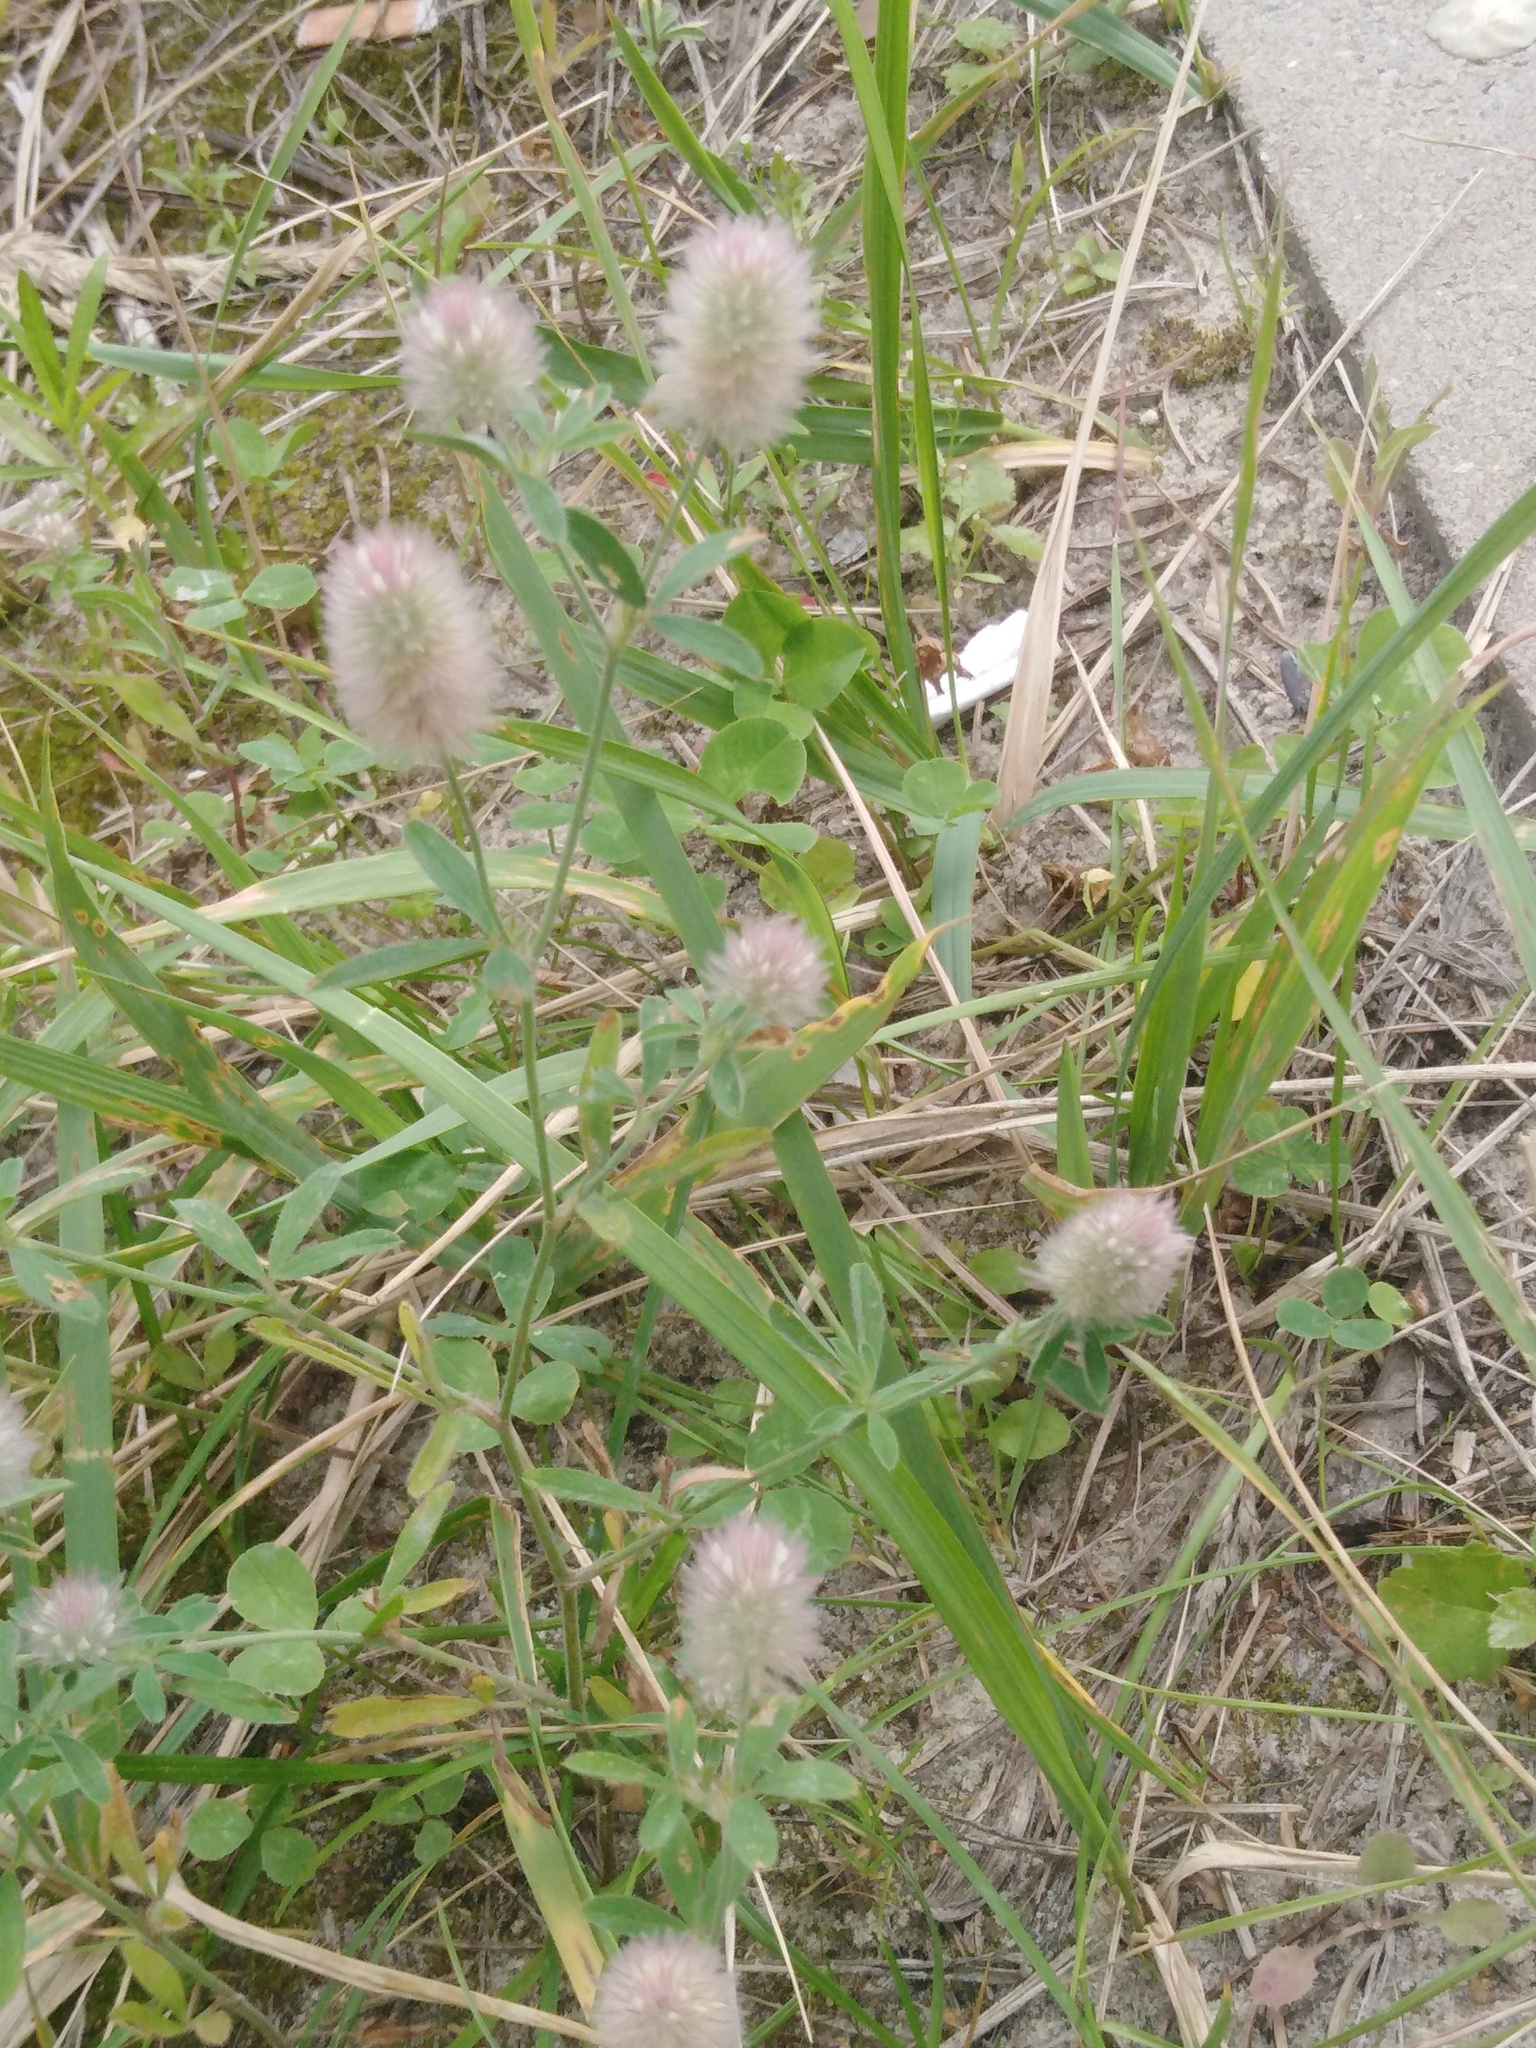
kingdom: Plantae
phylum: Tracheophyta
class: Magnoliopsida
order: Fabales
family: Fabaceae
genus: Trifolium
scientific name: Trifolium arvense
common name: Hare's-foot clover
